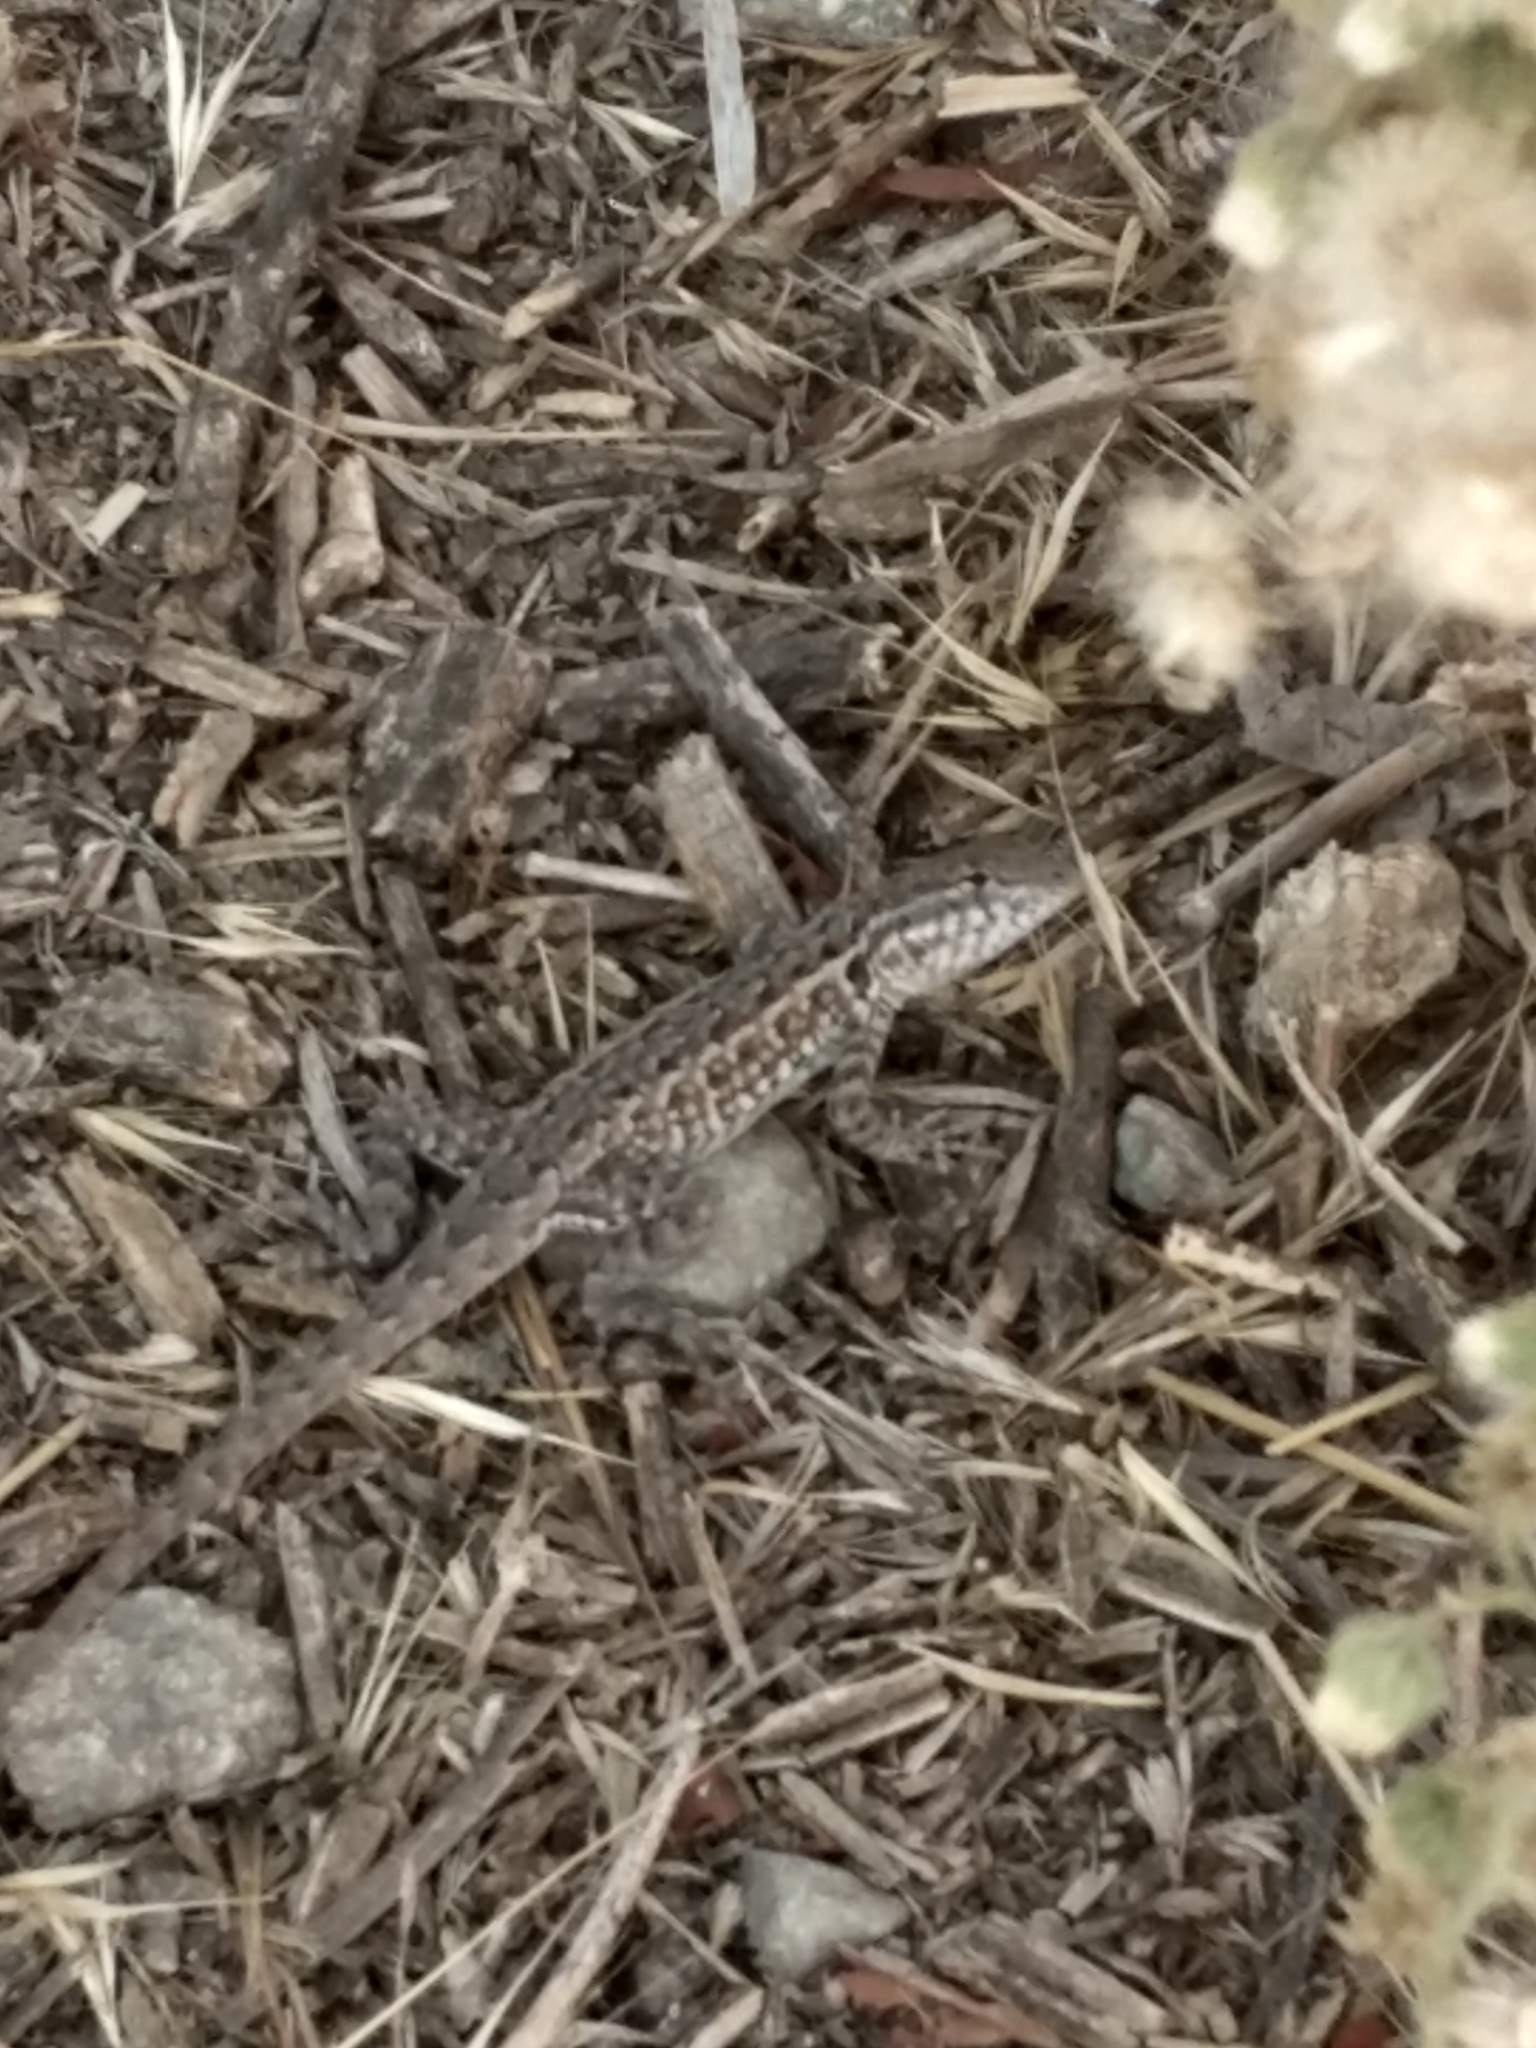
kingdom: Animalia
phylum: Chordata
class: Squamata
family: Phrynosomatidae
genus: Uta
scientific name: Uta stansburiana
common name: Side-blotched lizard
